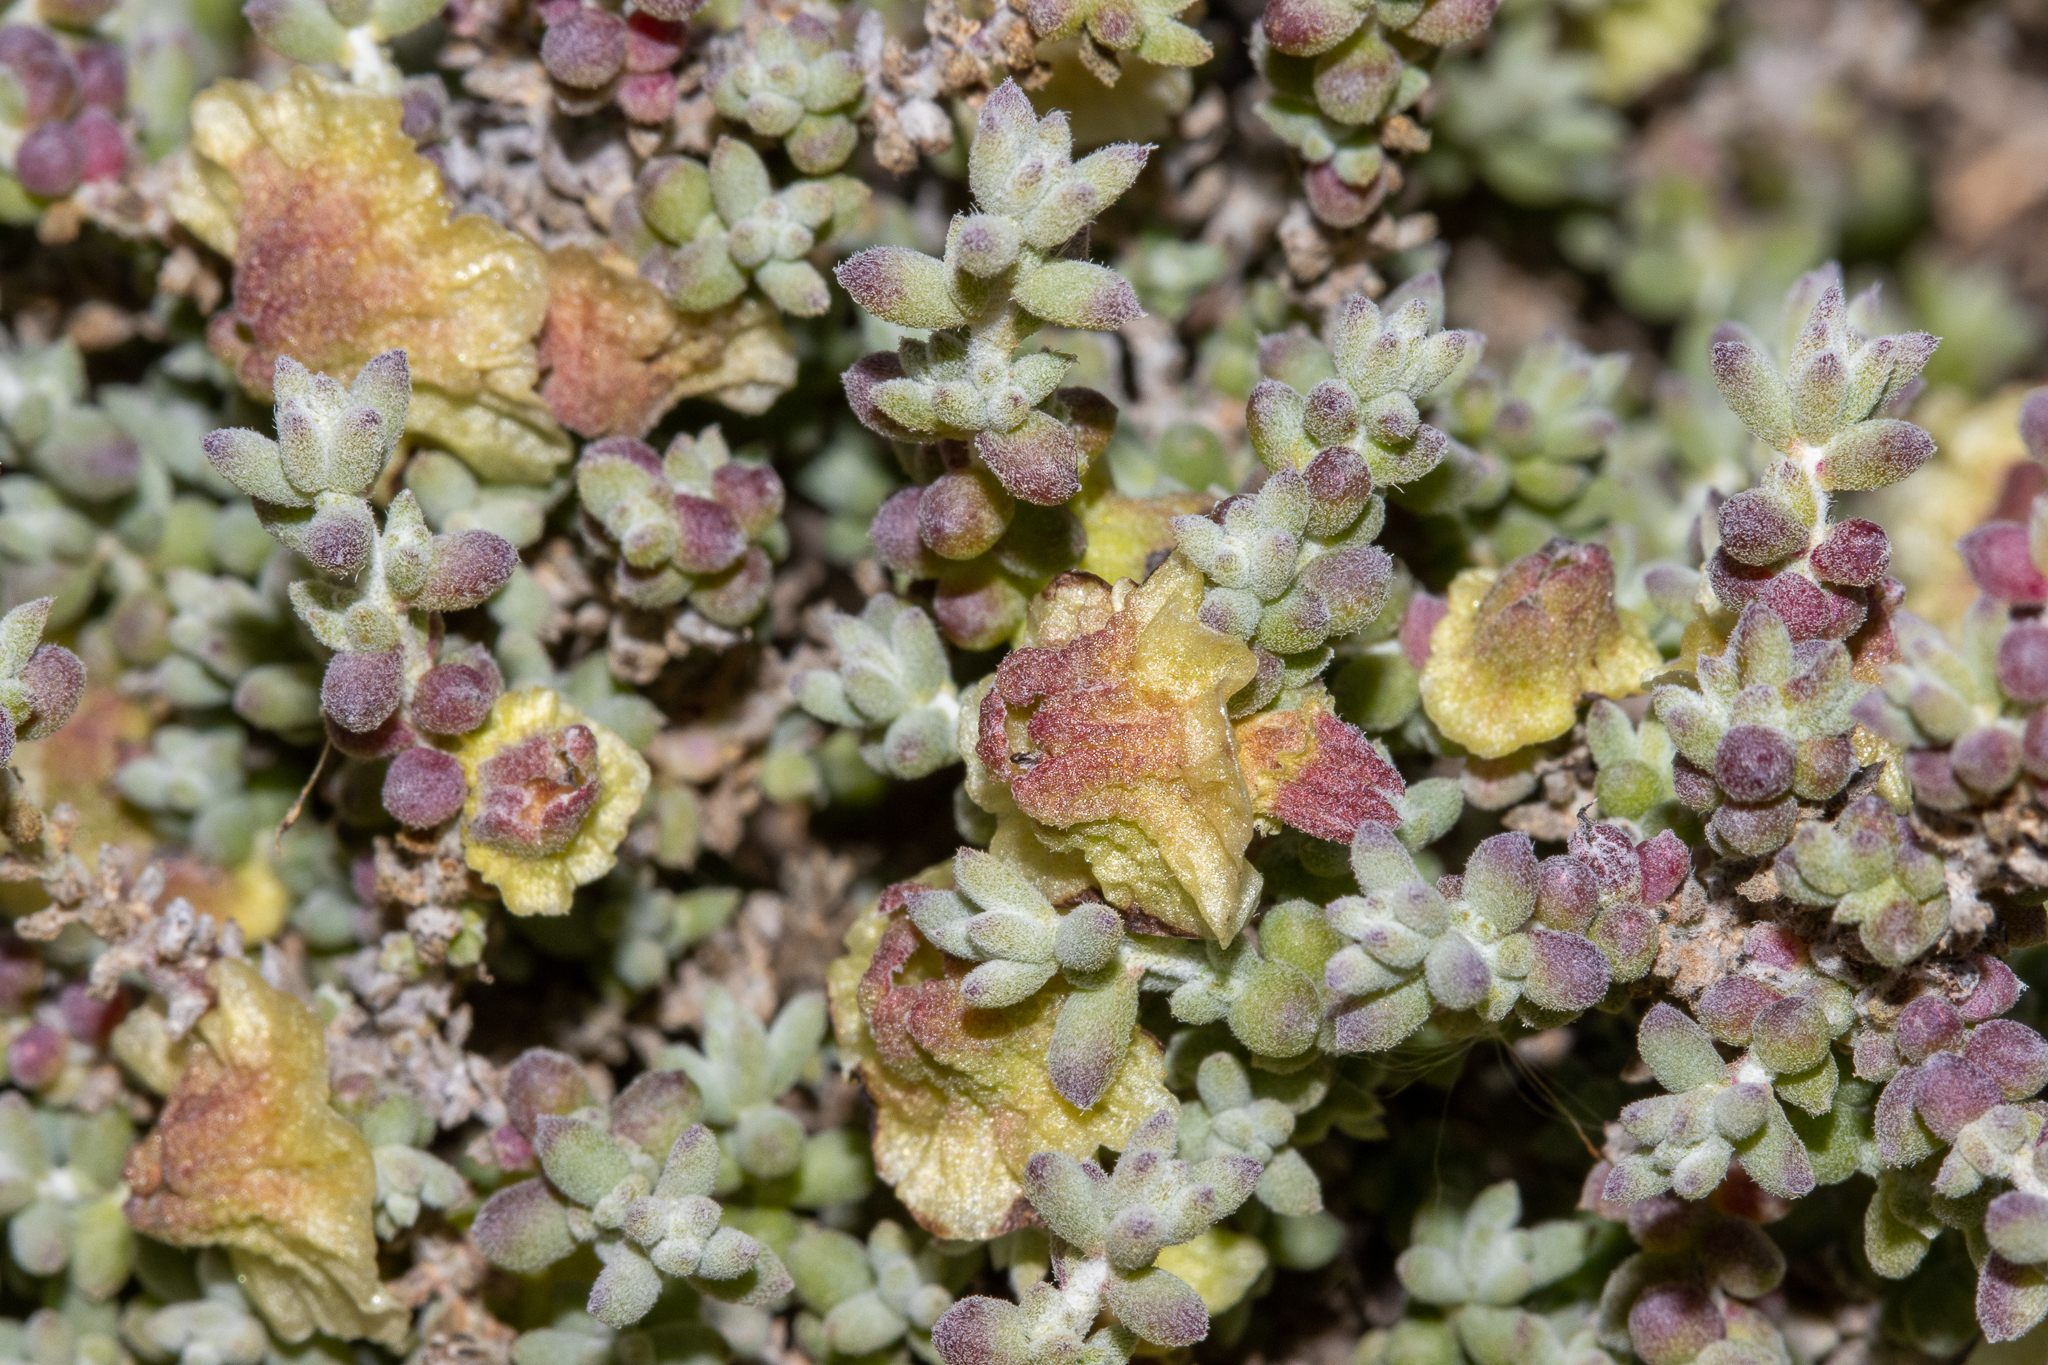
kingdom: Plantae
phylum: Tracheophyta
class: Magnoliopsida
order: Caryophyllales
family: Amaranthaceae
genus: Maireana
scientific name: Maireana pyramidata
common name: Sagobush
